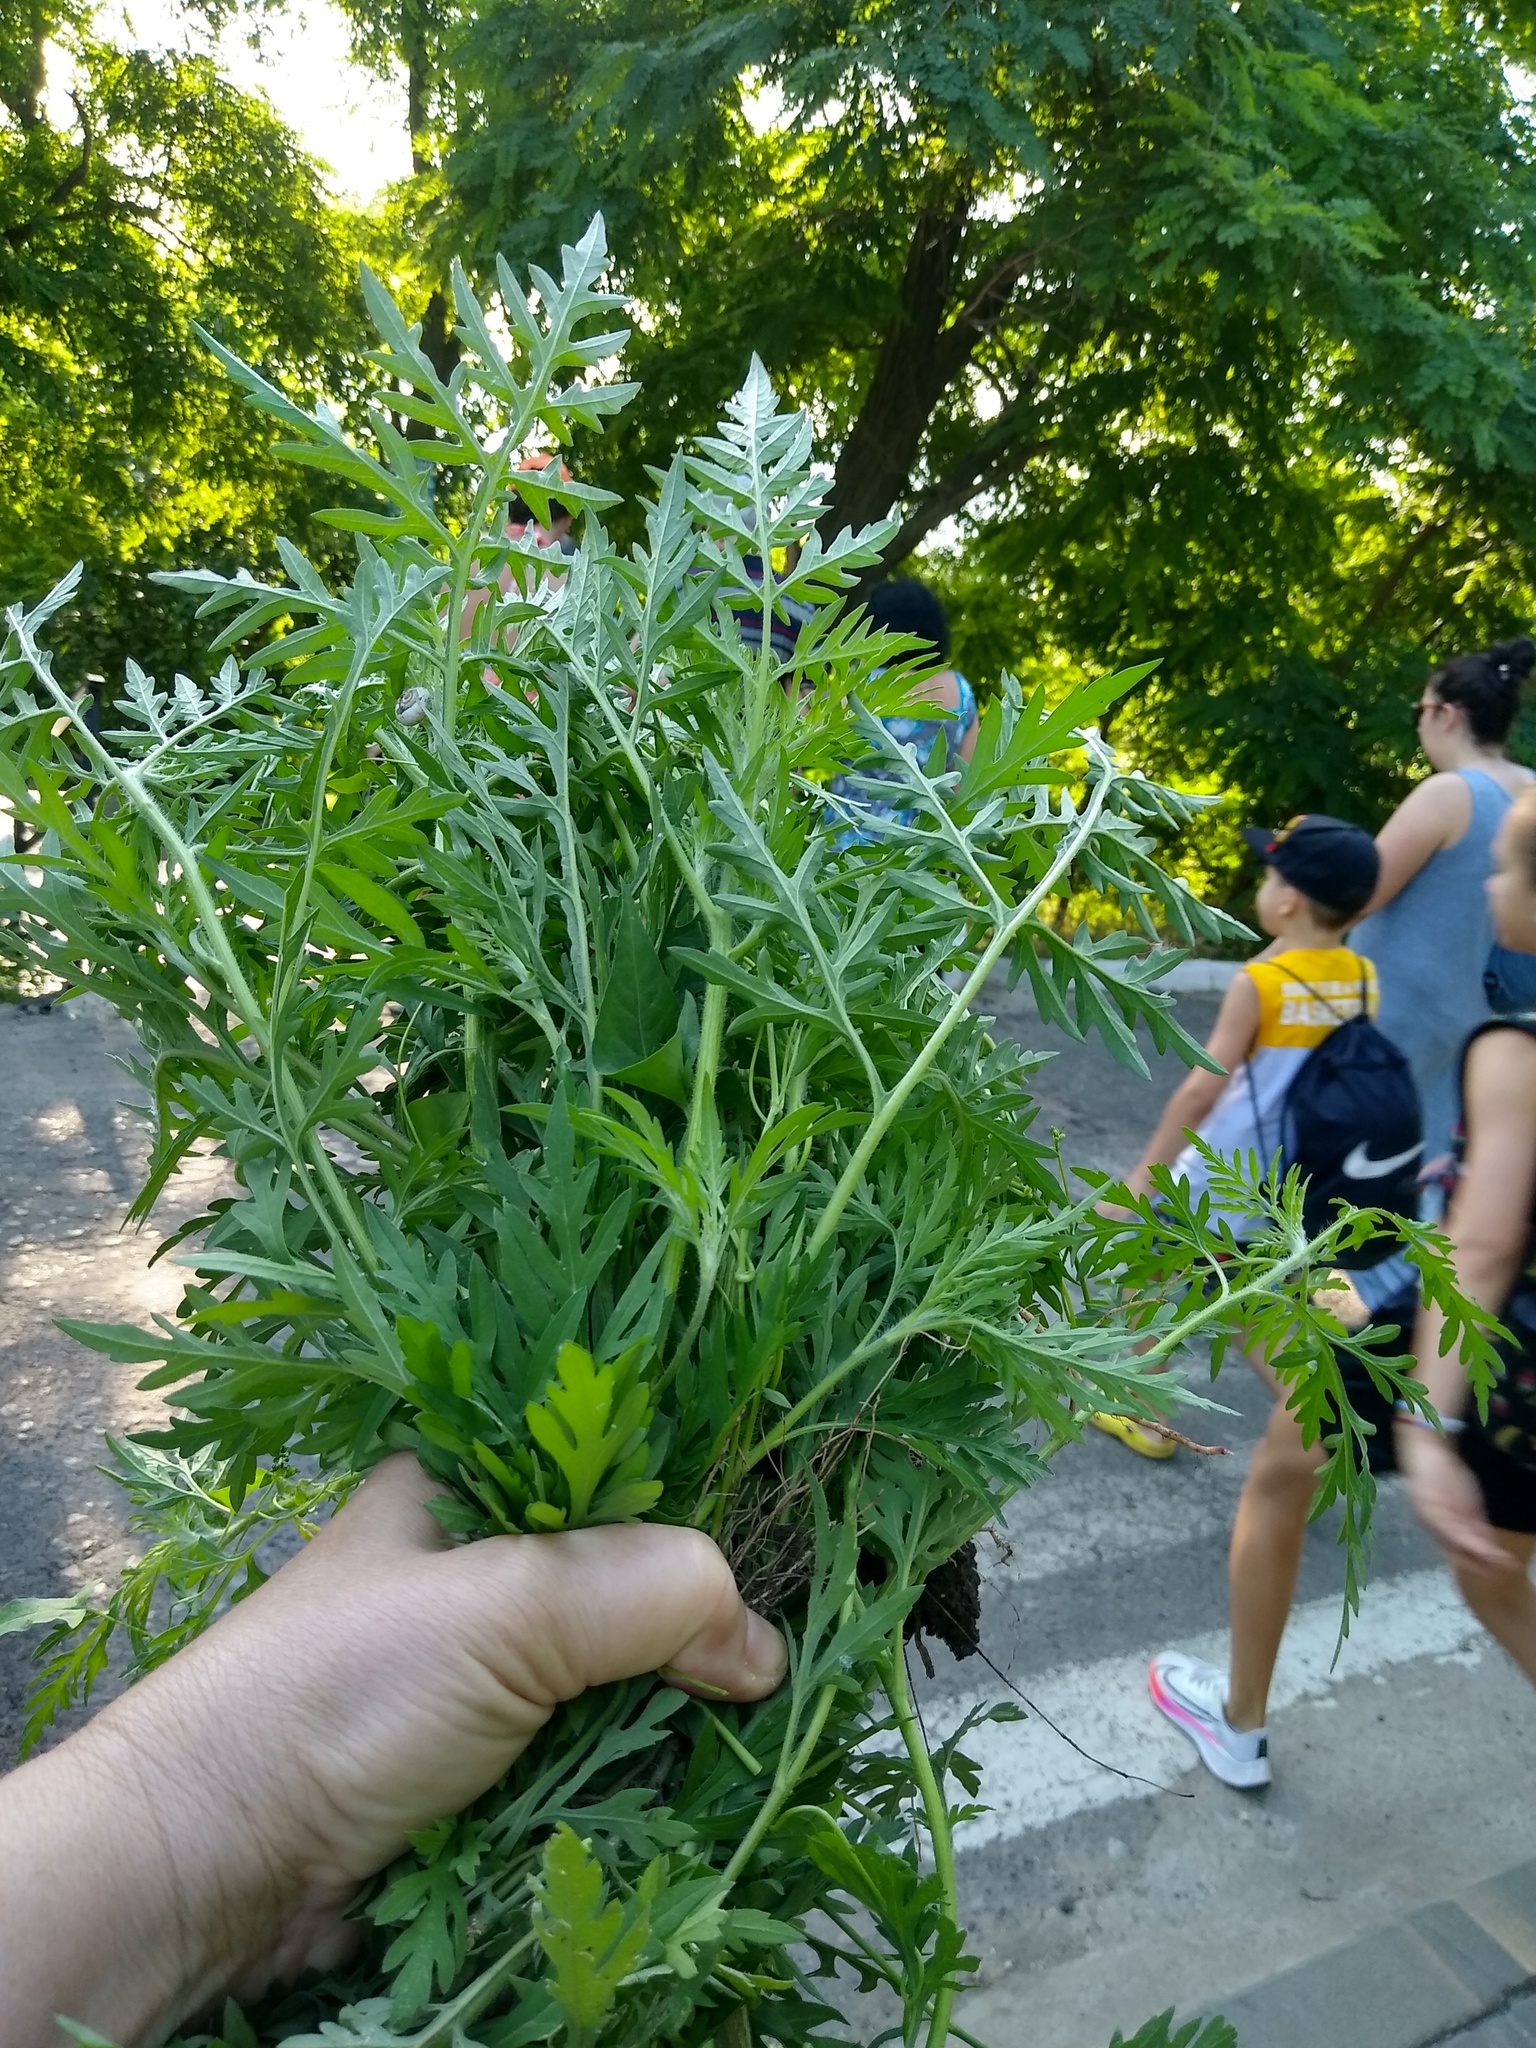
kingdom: Plantae
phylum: Tracheophyta
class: Magnoliopsida
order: Asterales
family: Asteraceae
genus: Ambrosia
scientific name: Ambrosia artemisiifolia
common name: Annual ragweed
